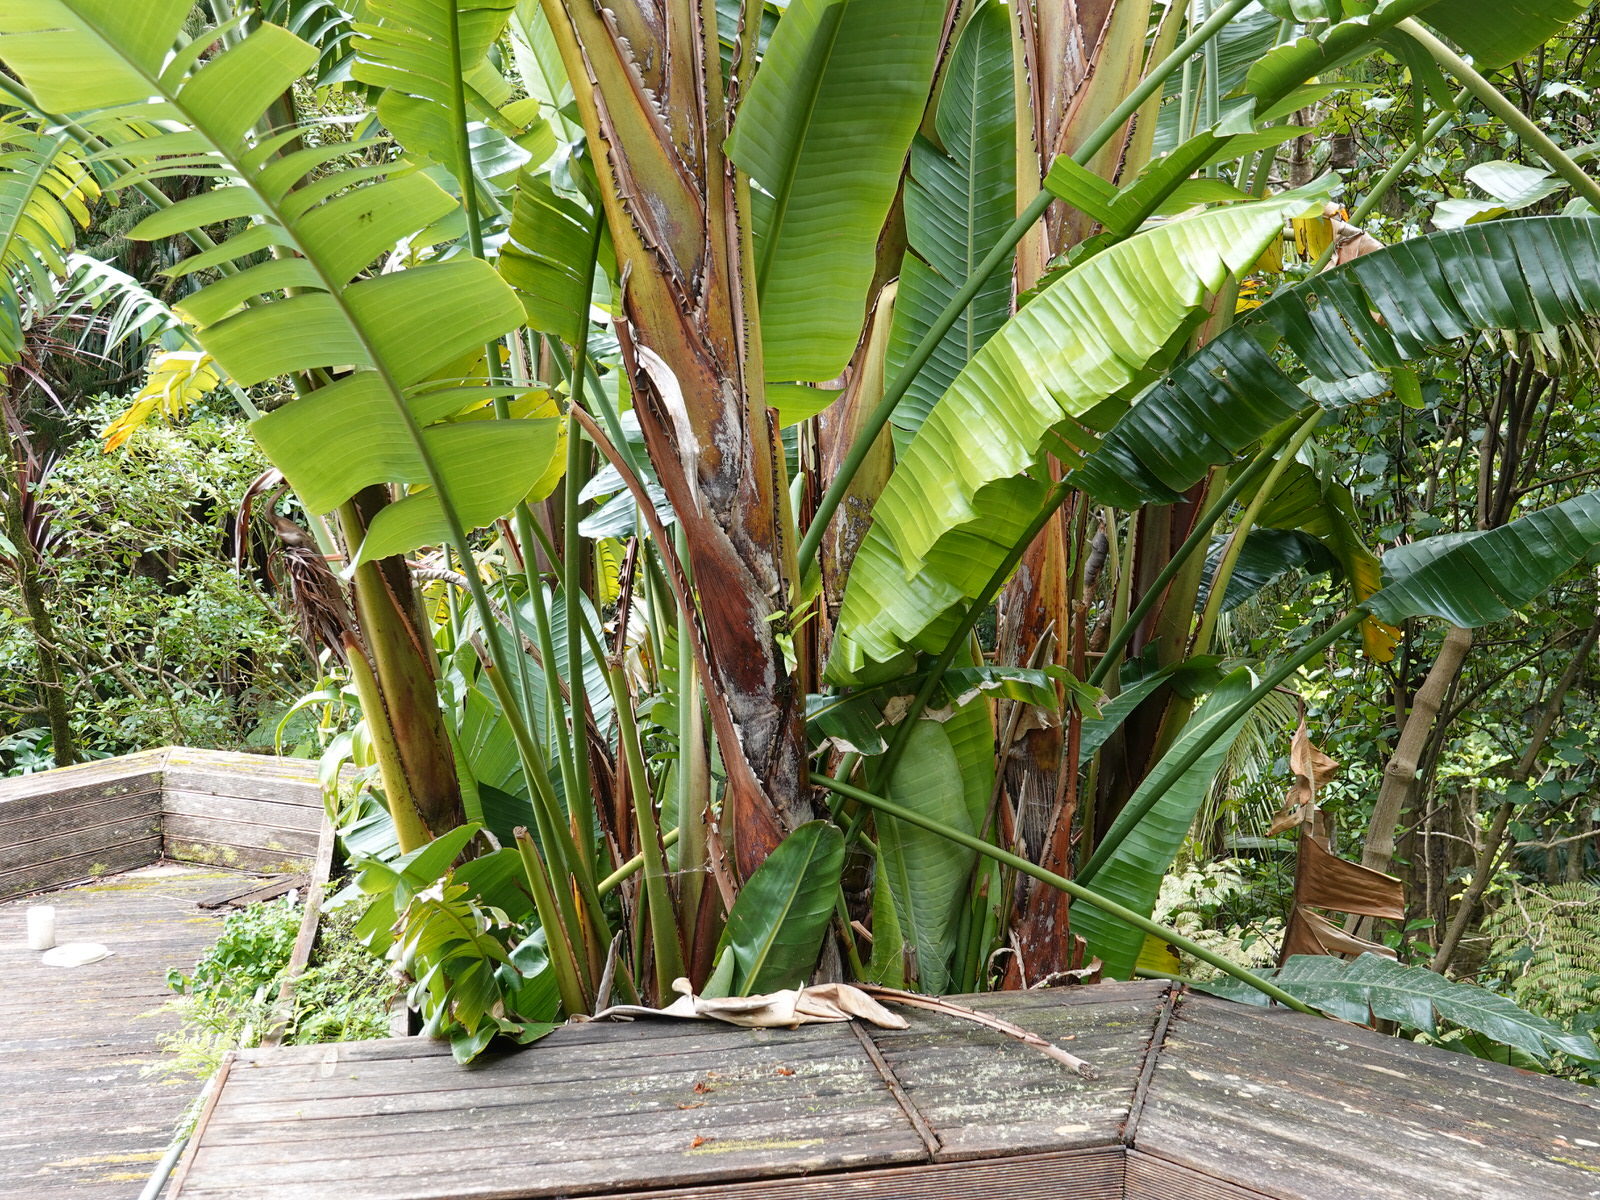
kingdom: Plantae
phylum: Tracheophyta
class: Polypodiopsida
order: Polypodiales
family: Polypodiaceae
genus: Lecanopteris
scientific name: Lecanopteris pustulata
